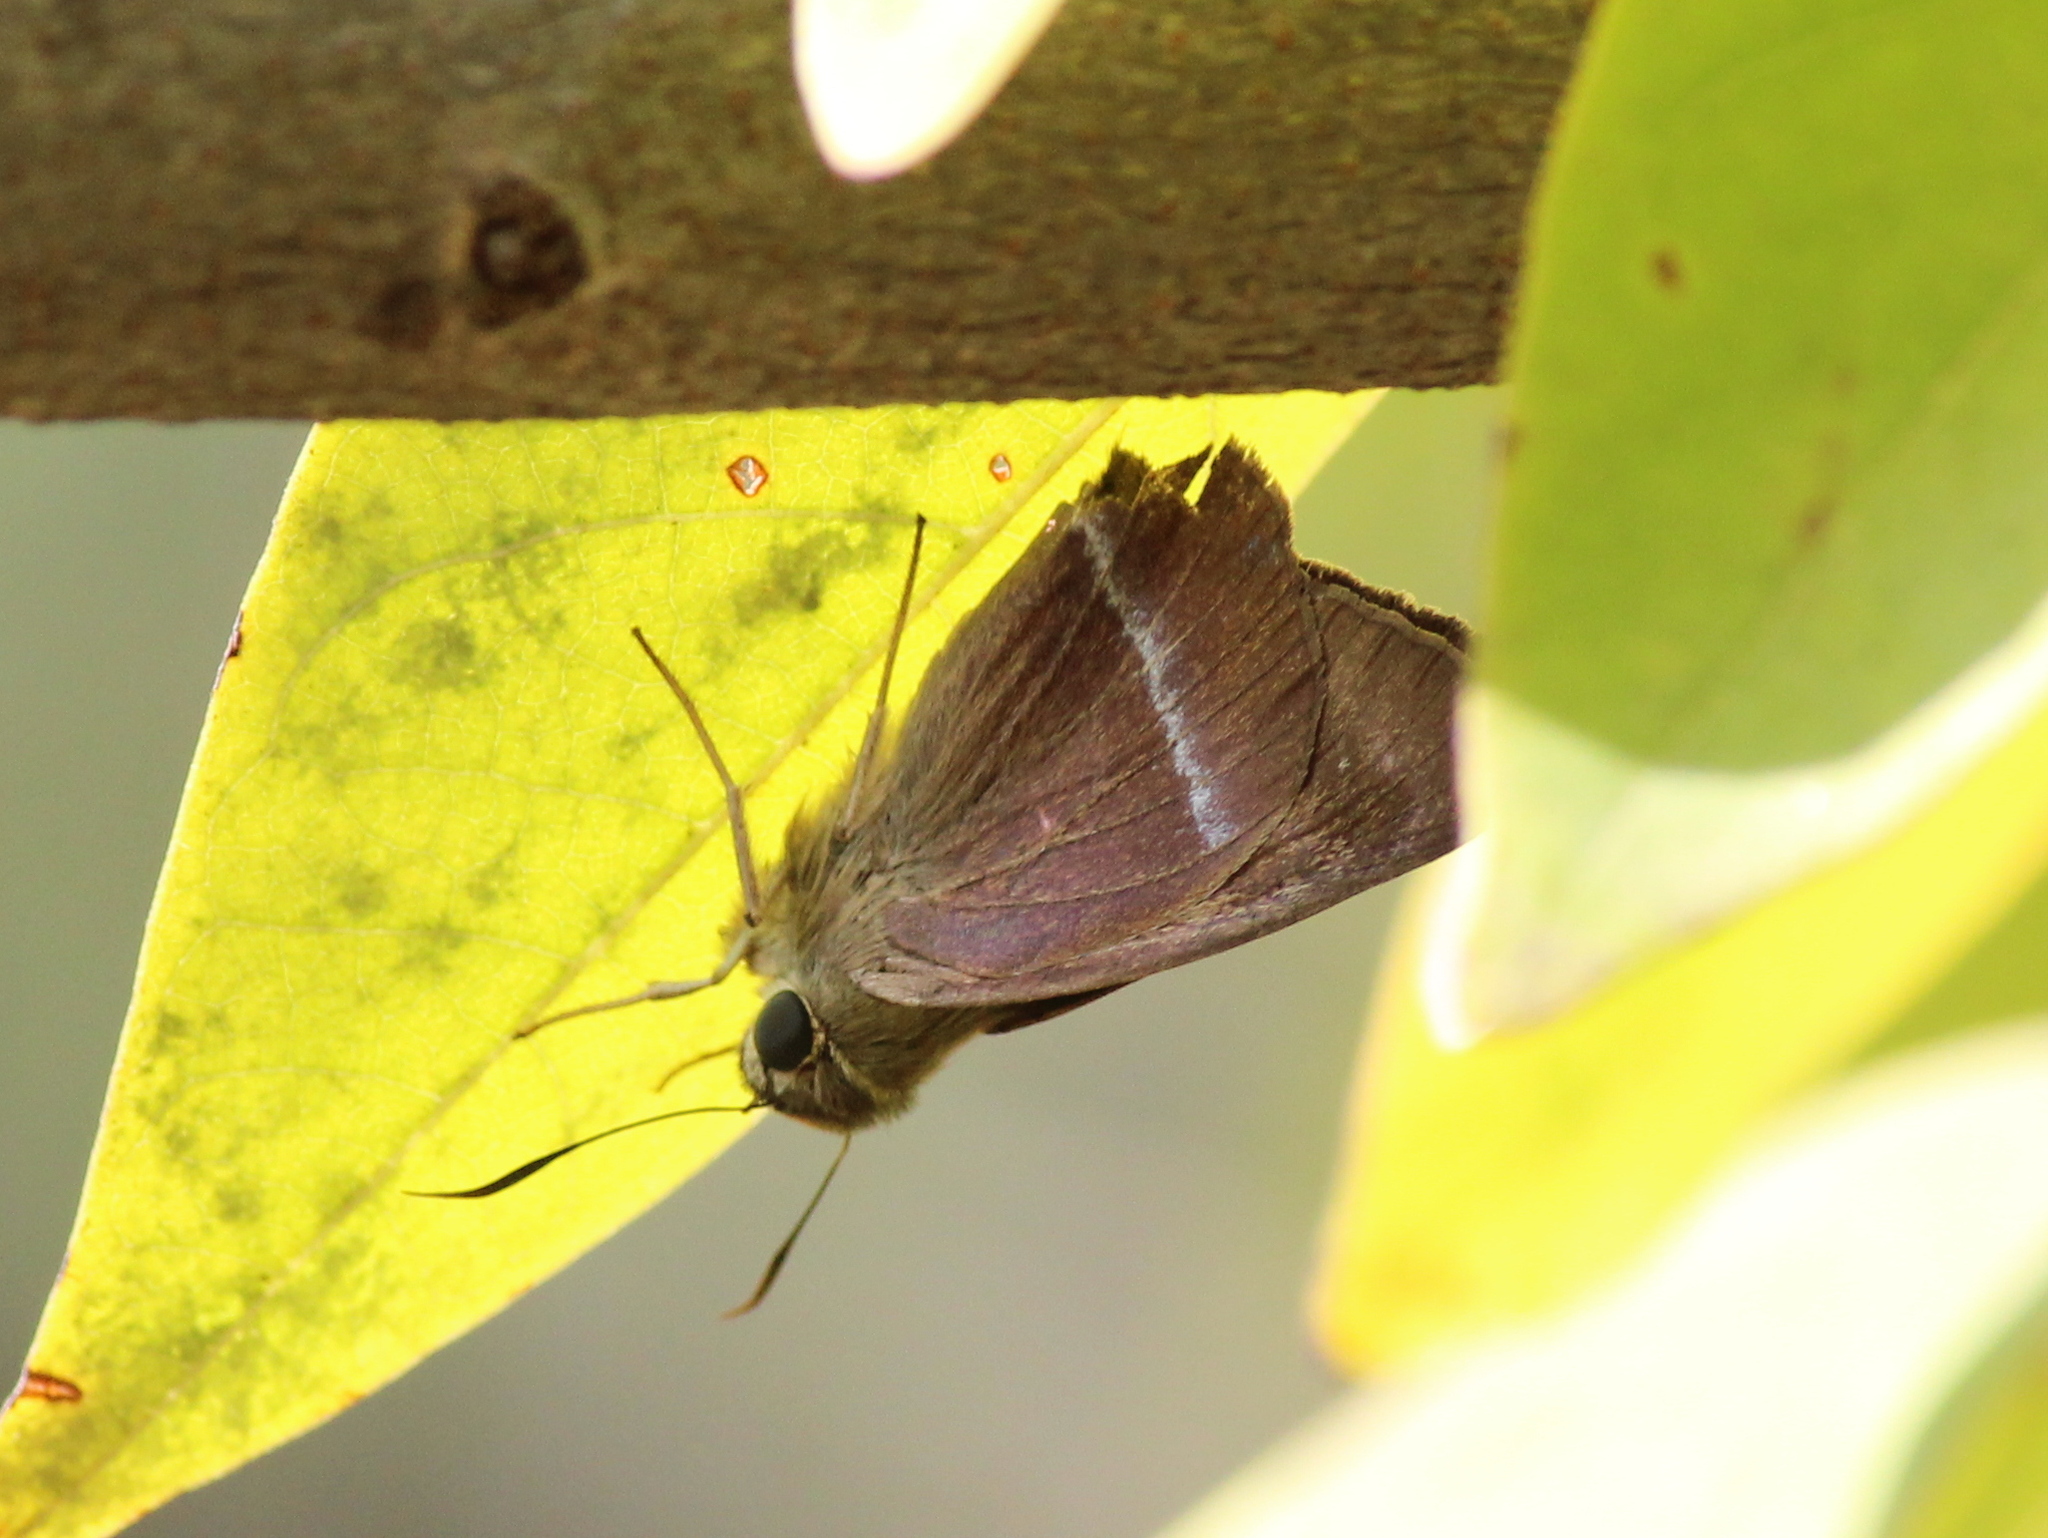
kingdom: Animalia
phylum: Arthropoda
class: Insecta
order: Lepidoptera
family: Hesperiidae
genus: Hasora
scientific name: Hasora chromus
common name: Common banded awl
